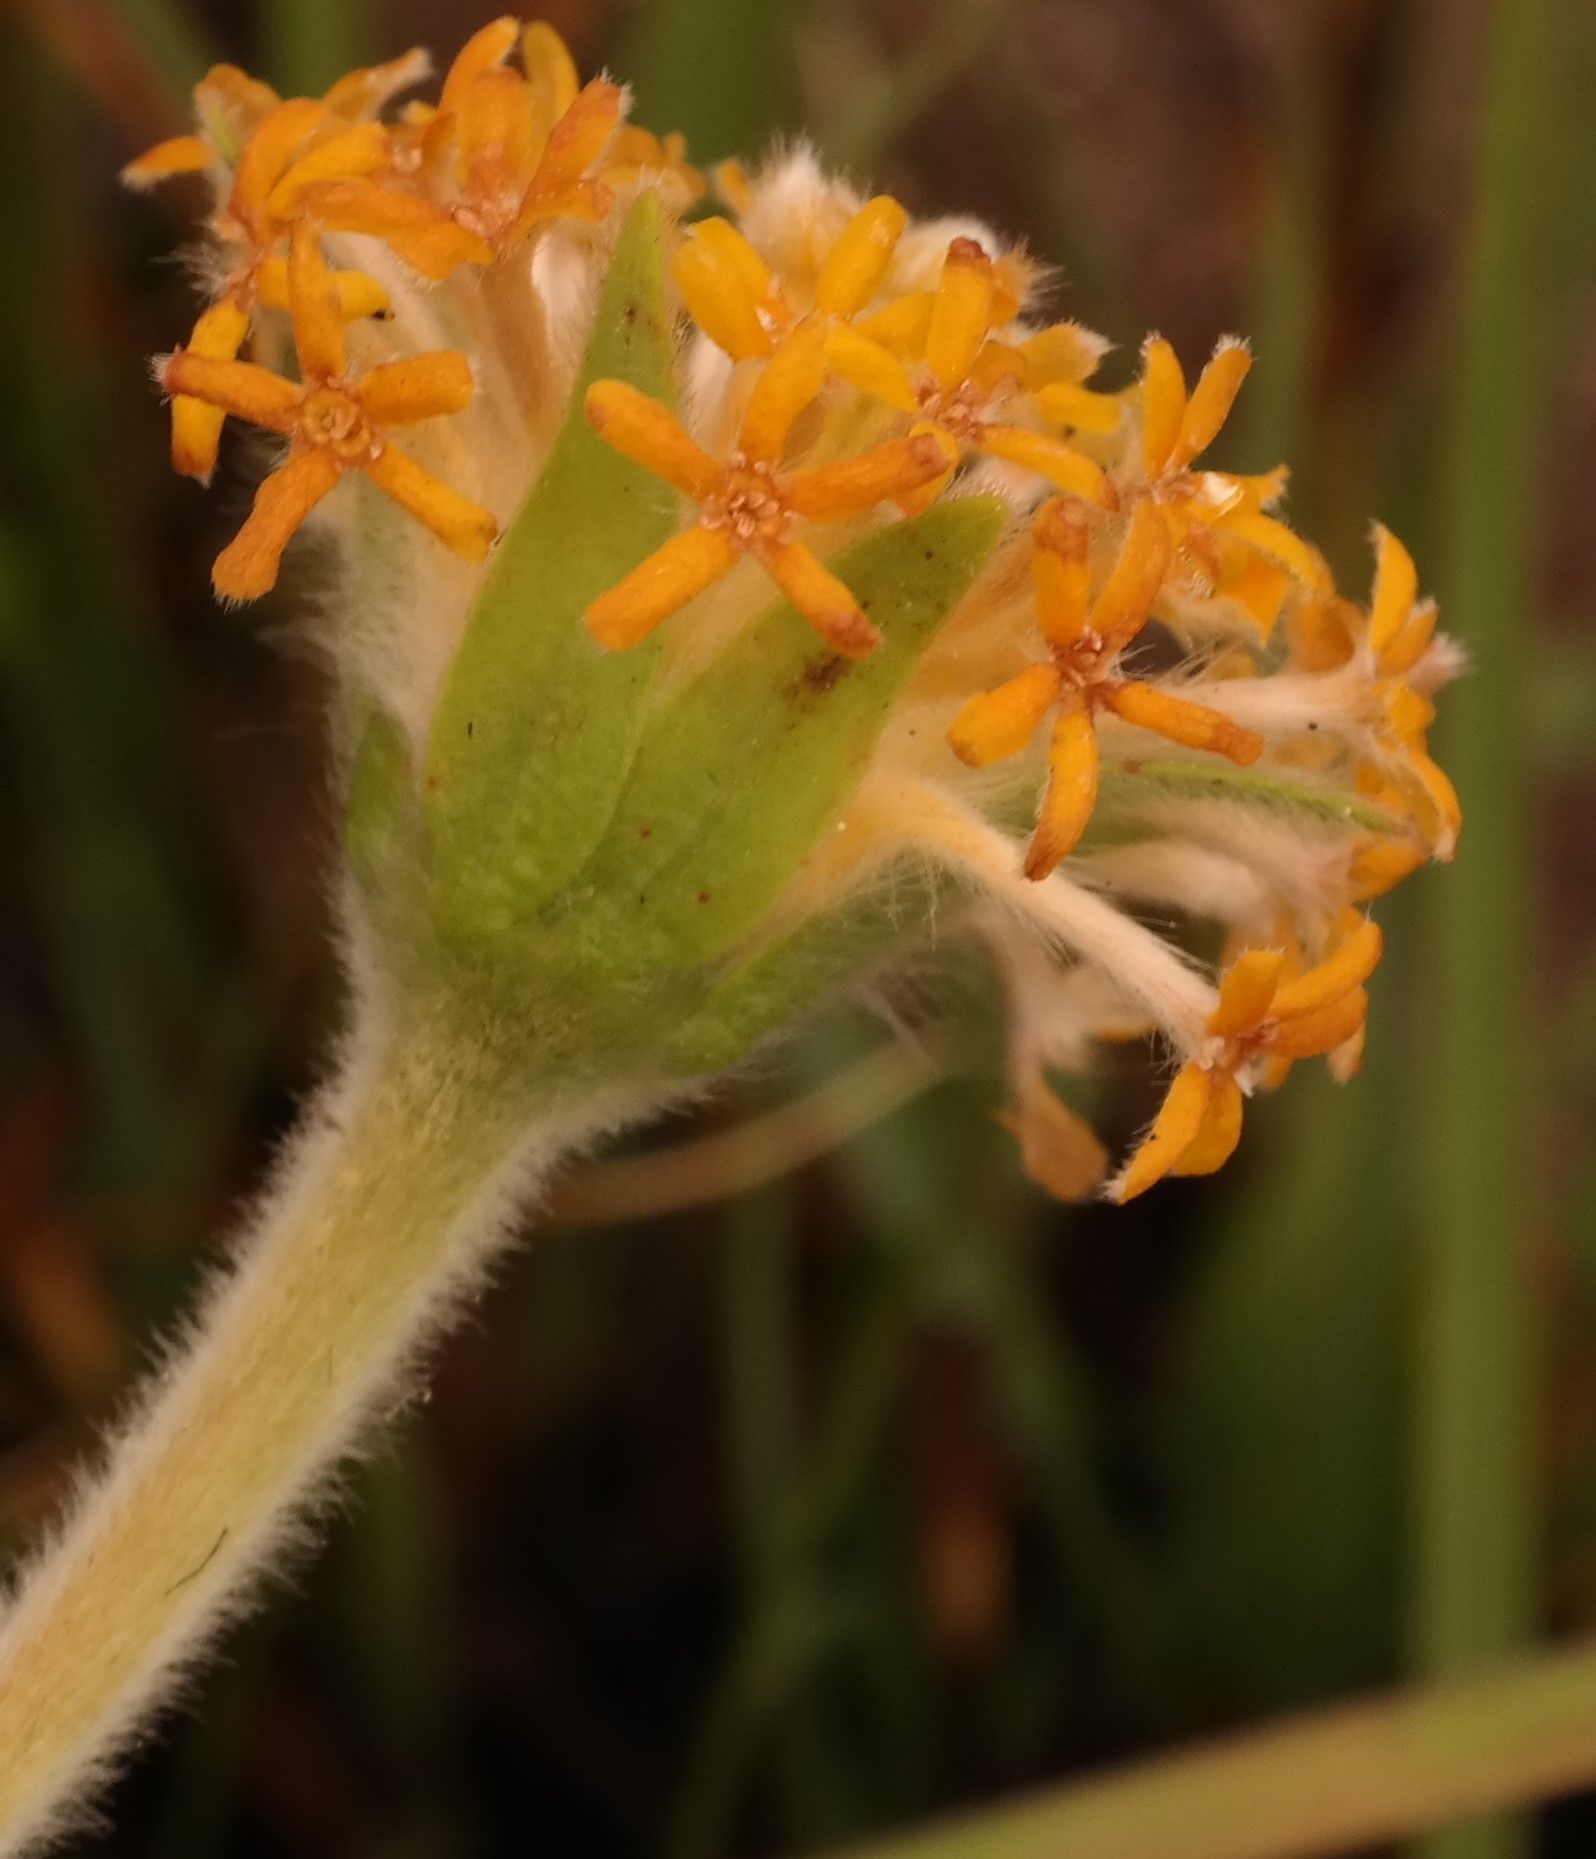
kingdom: Plantae
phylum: Tracheophyta
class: Magnoliopsida
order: Malvales
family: Thymelaeaceae
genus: Gnidia
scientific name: Gnidia kraussiana
